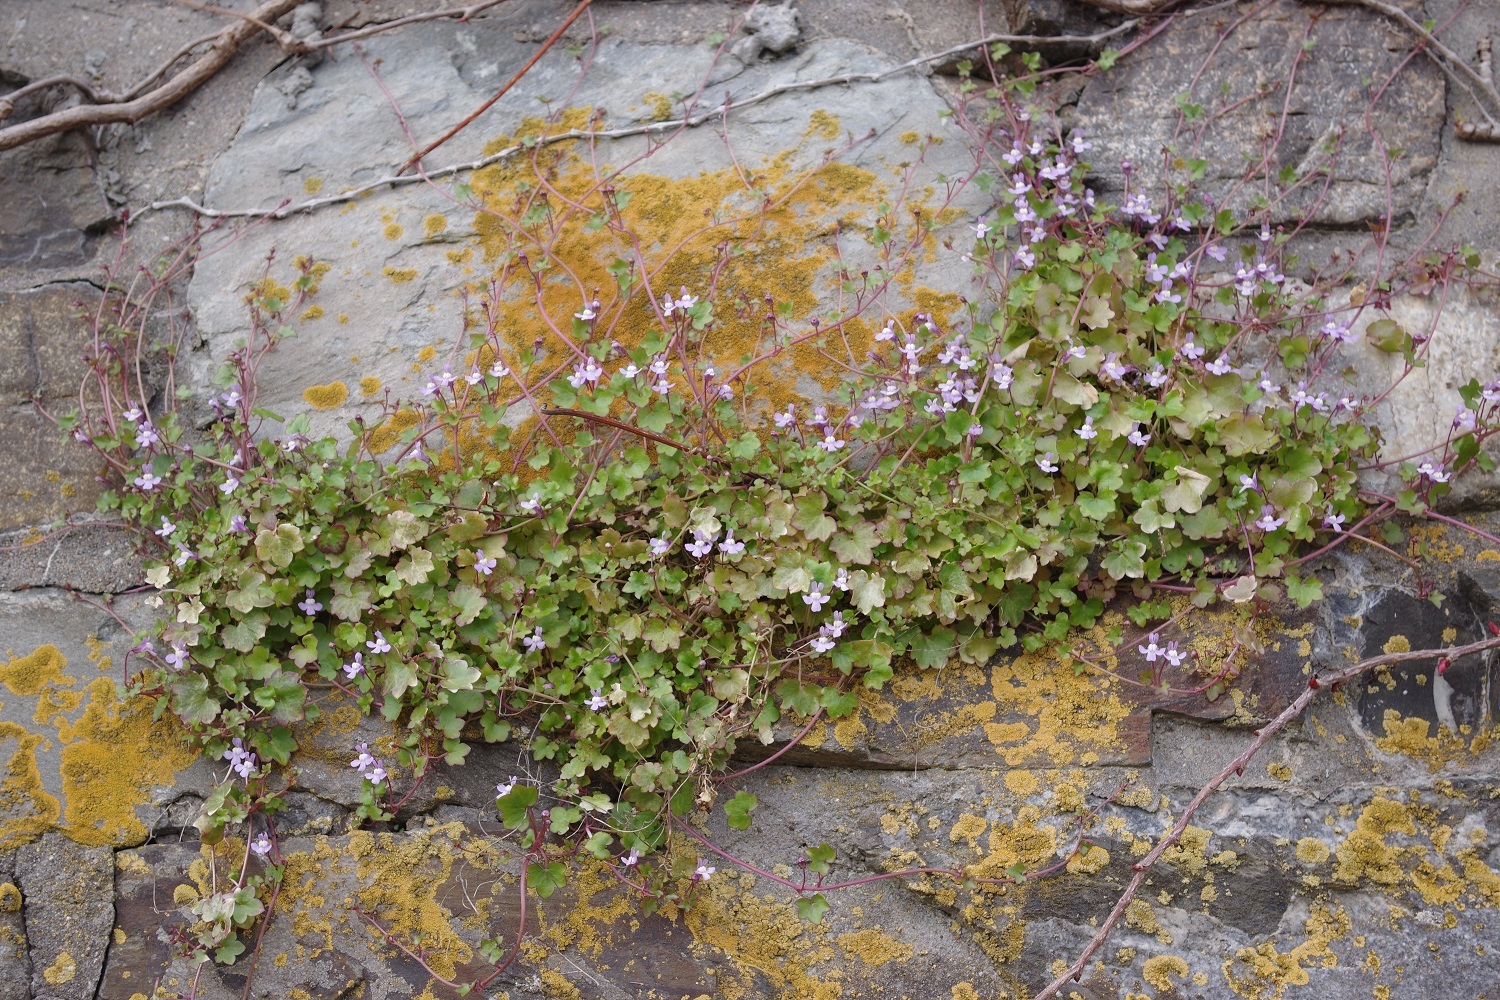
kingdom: Plantae
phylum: Tracheophyta
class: Magnoliopsida
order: Lamiales
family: Plantaginaceae
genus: Cymbalaria
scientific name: Cymbalaria muralis
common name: Ivy-leaved toadflax
